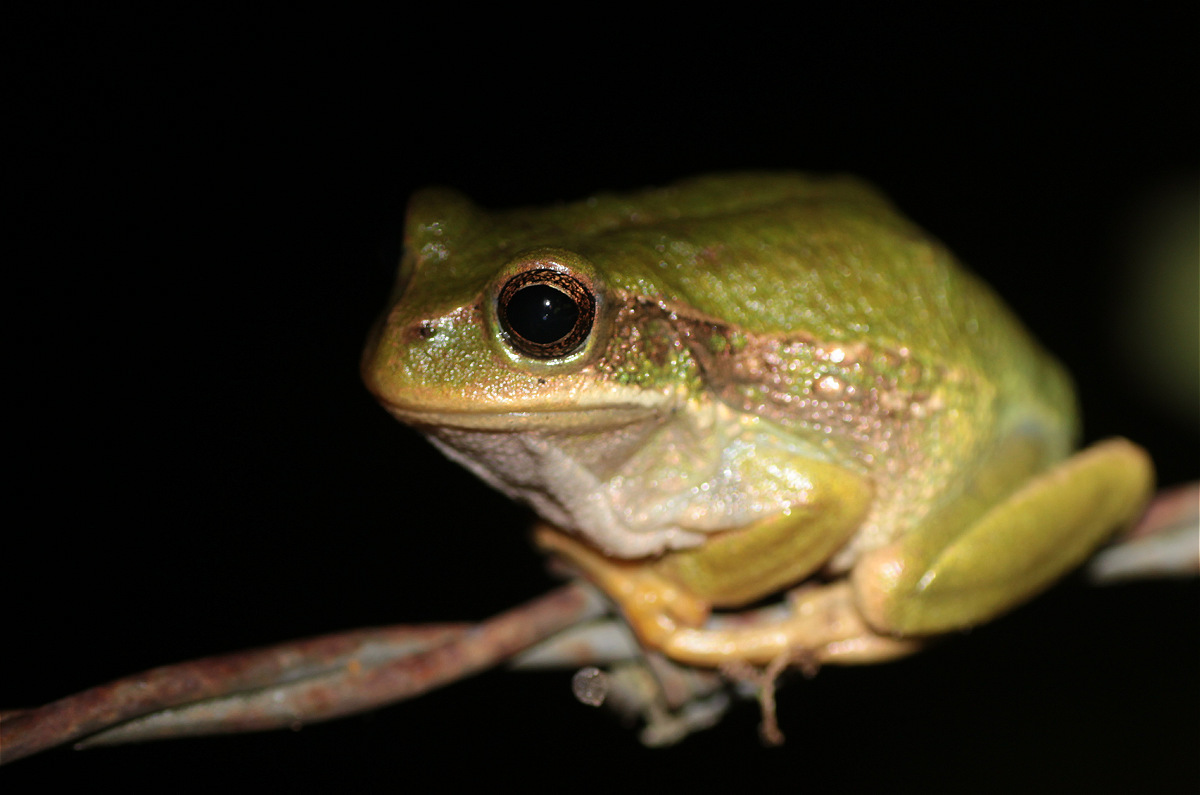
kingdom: Animalia
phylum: Chordata
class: Amphibia
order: Anura
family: Hemiphractidae
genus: Gastrotheca
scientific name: Gastrotheca cuencana
